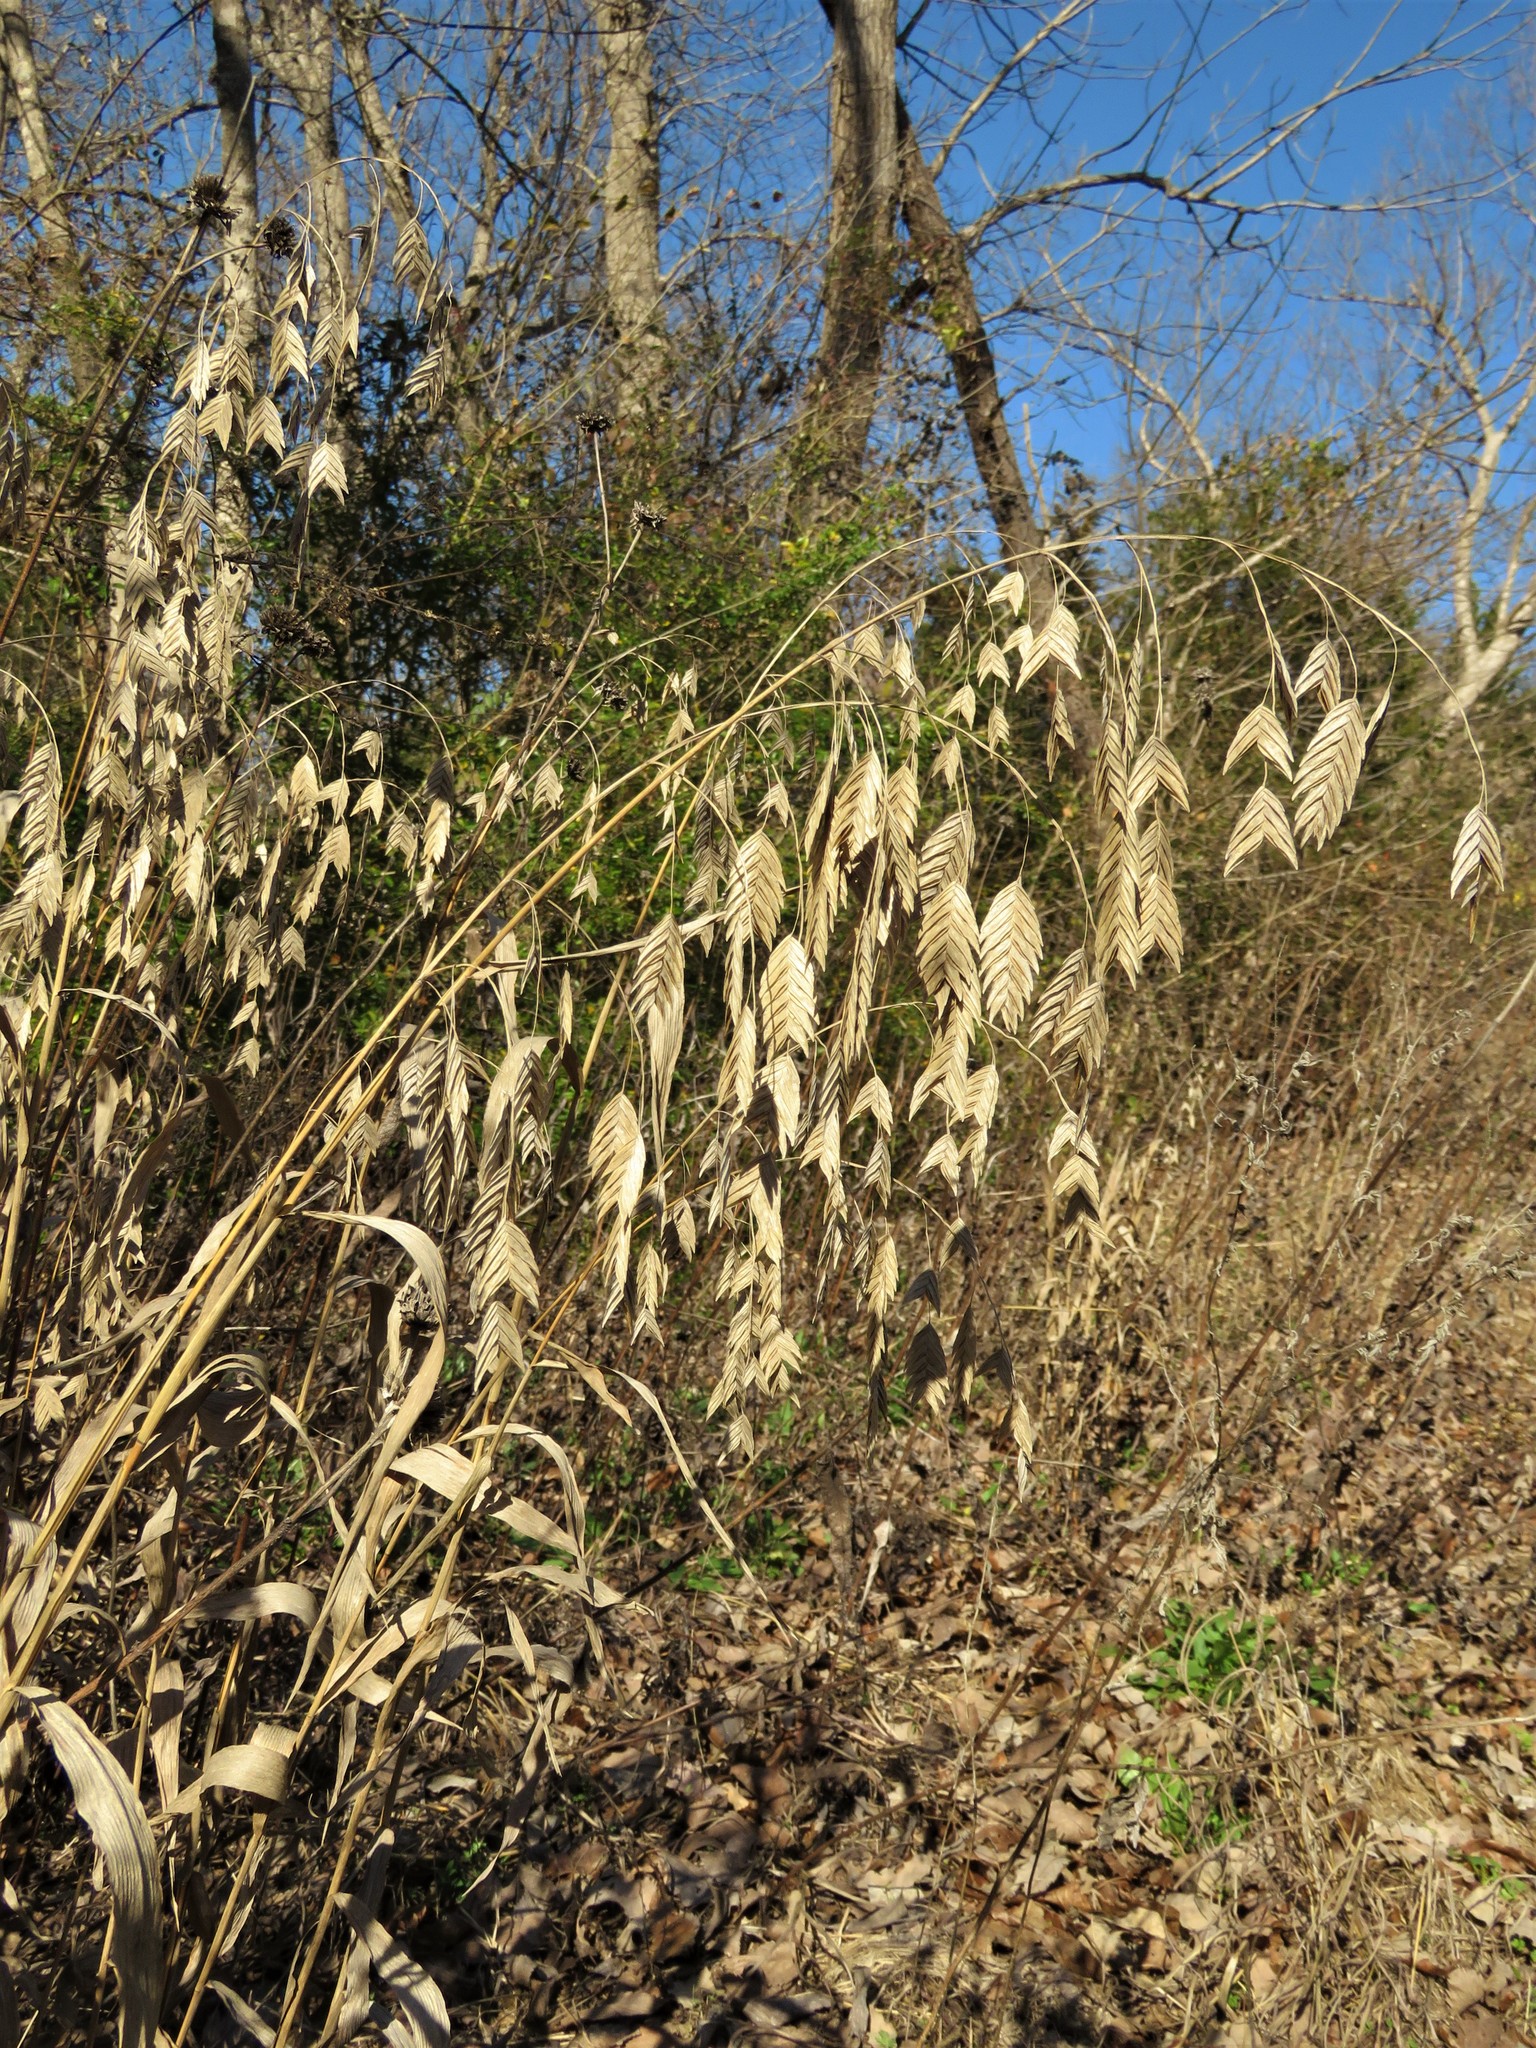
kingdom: Plantae
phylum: Tracheophyta
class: Liliopsida
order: Poales
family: Poaceae
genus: Chasmanthium
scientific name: Chasmanthium latifolium
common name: Broad-leaved chasmanthium
